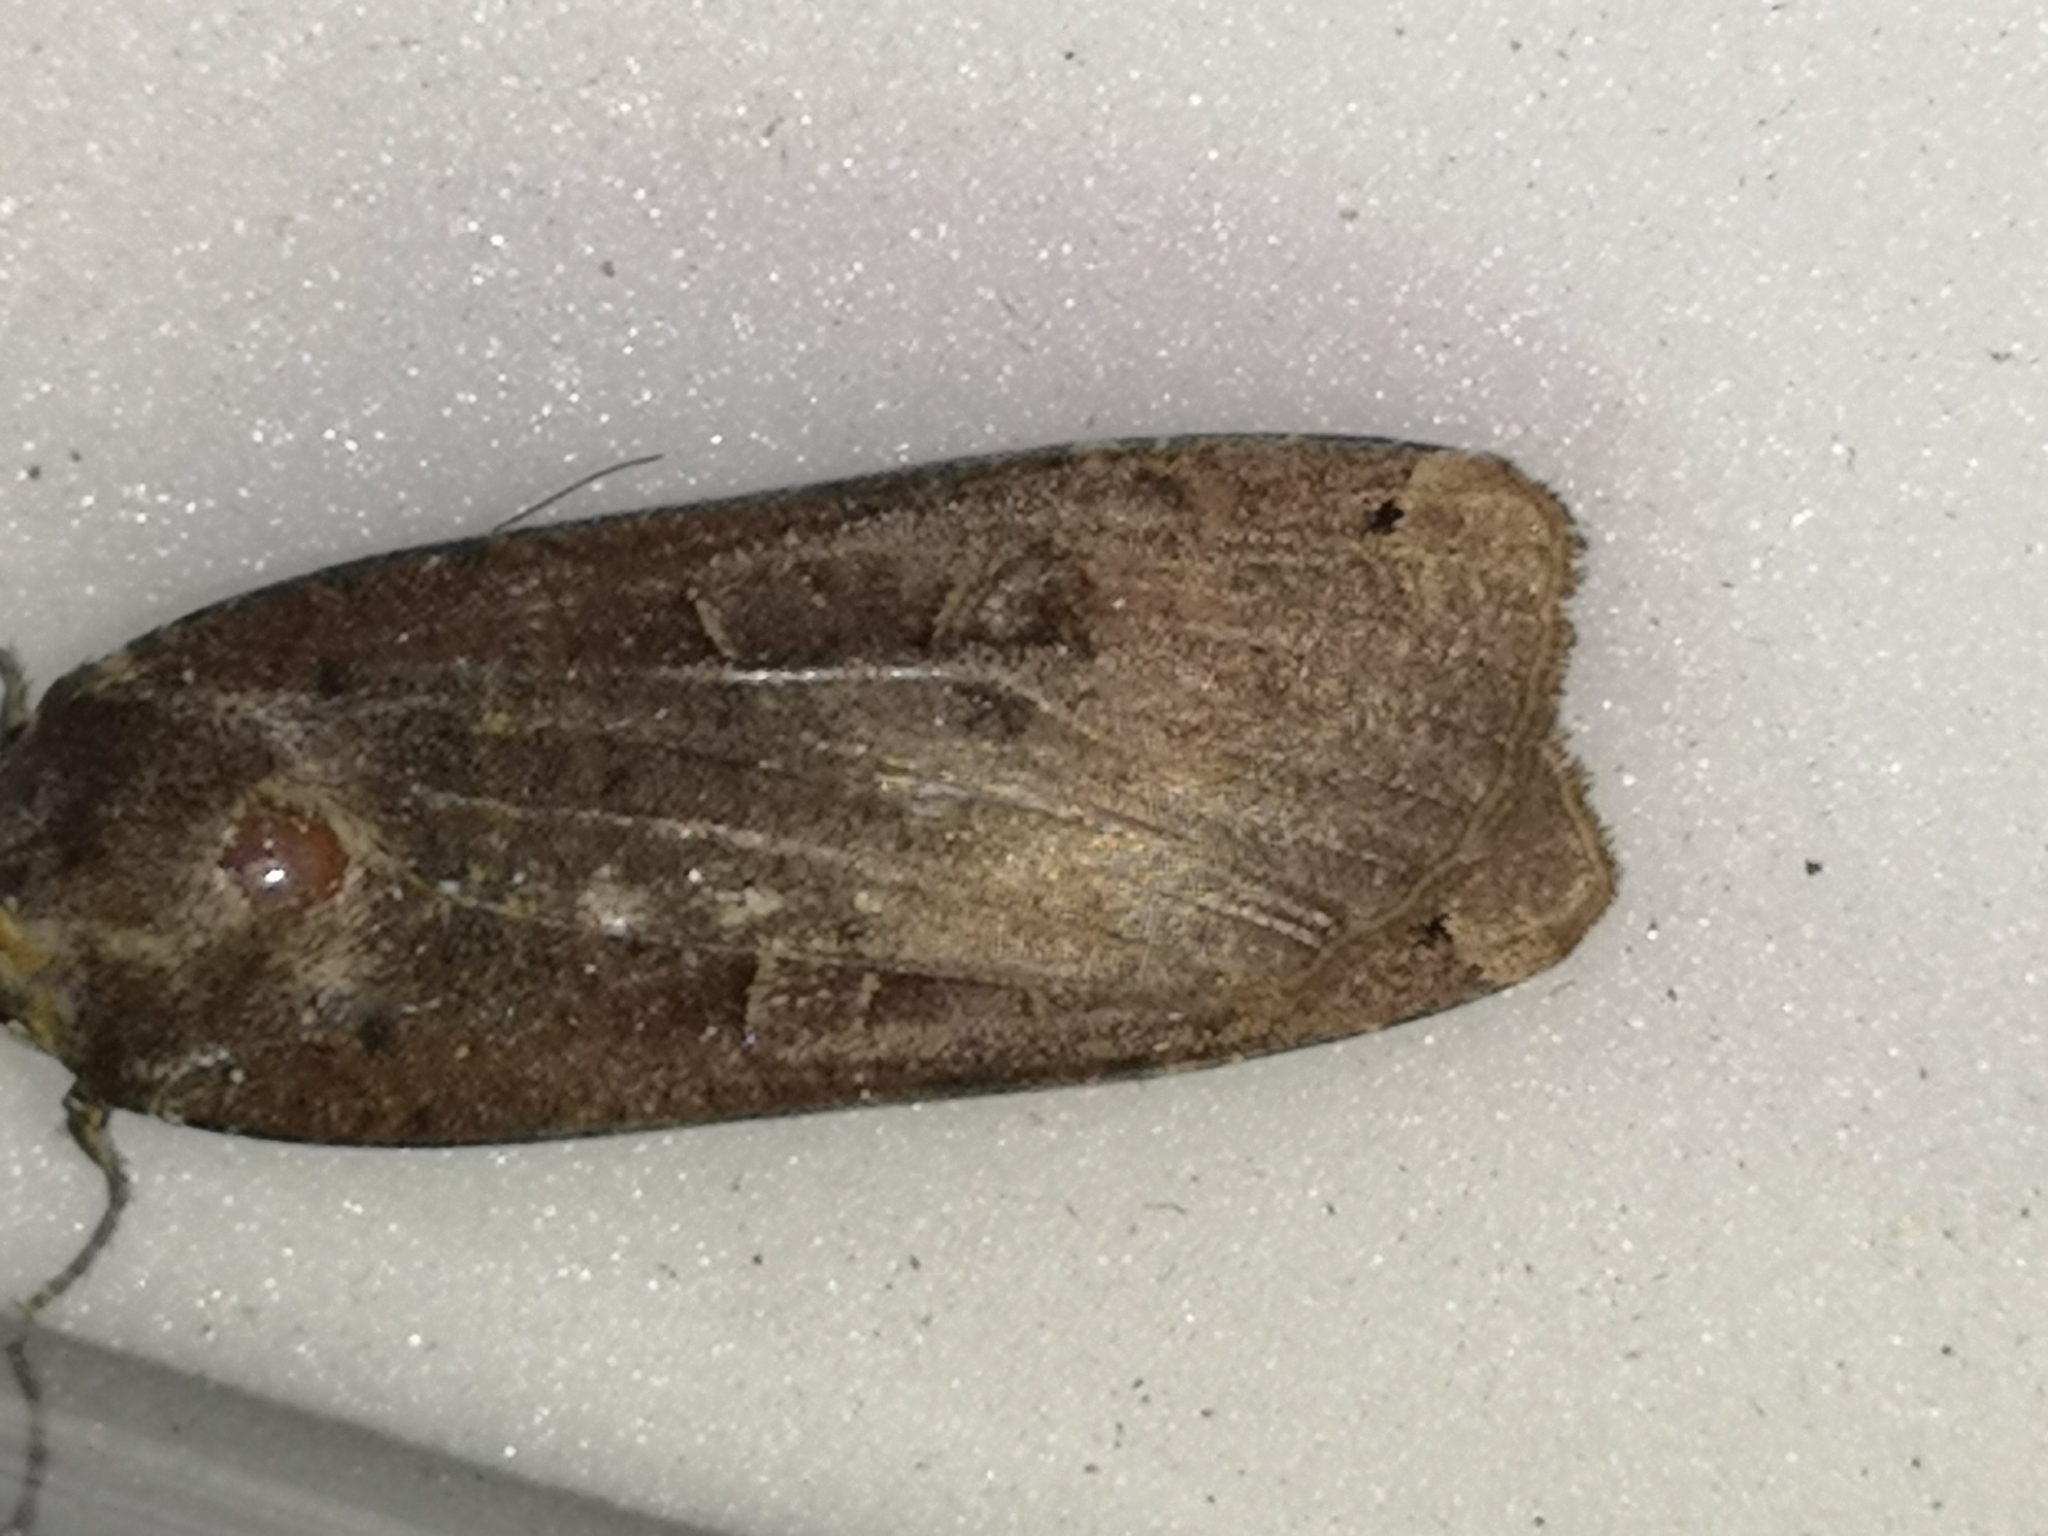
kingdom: Animalia
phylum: Arthropoda
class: Insecta
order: Lepidoptera
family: Noctuidae
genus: Noctua
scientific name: Noctua pronuba
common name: Large yellow underwing
